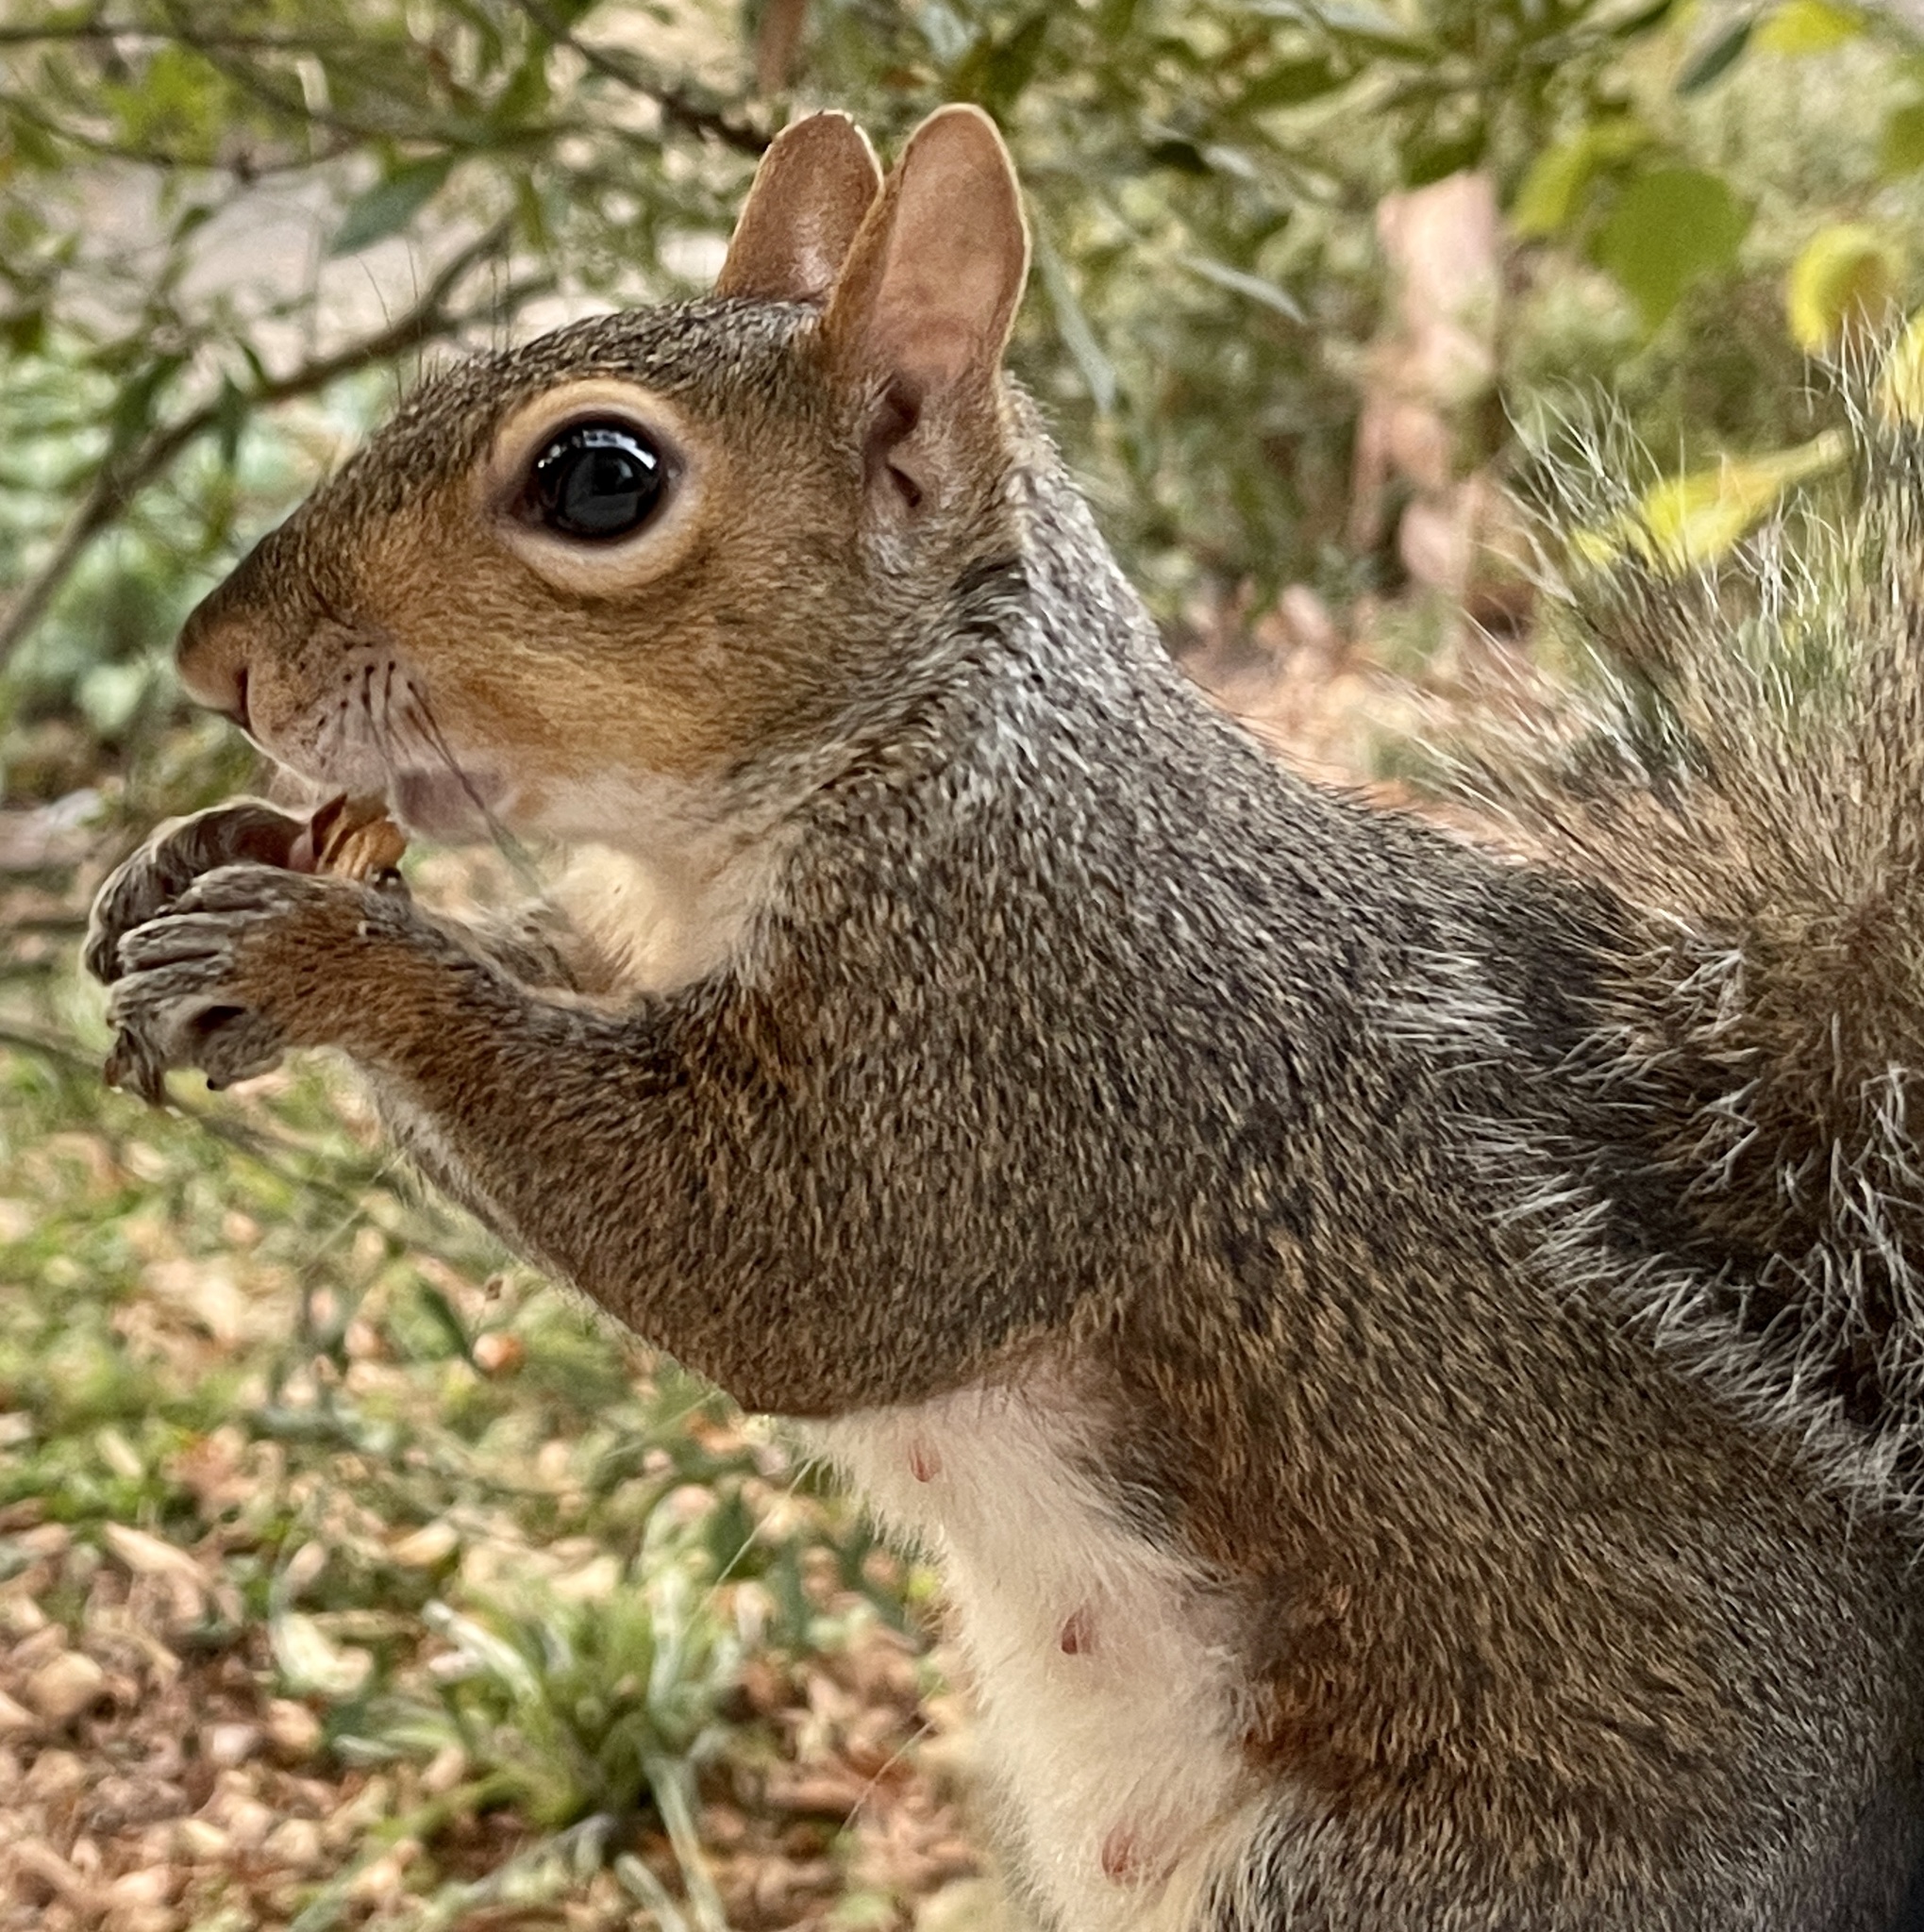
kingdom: Animalia
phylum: Chordata
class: Mammalia
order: Rodentia
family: Sciuridae
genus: Sciurus
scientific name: Sciurus carolinensis
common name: Eastern gray squirrel
